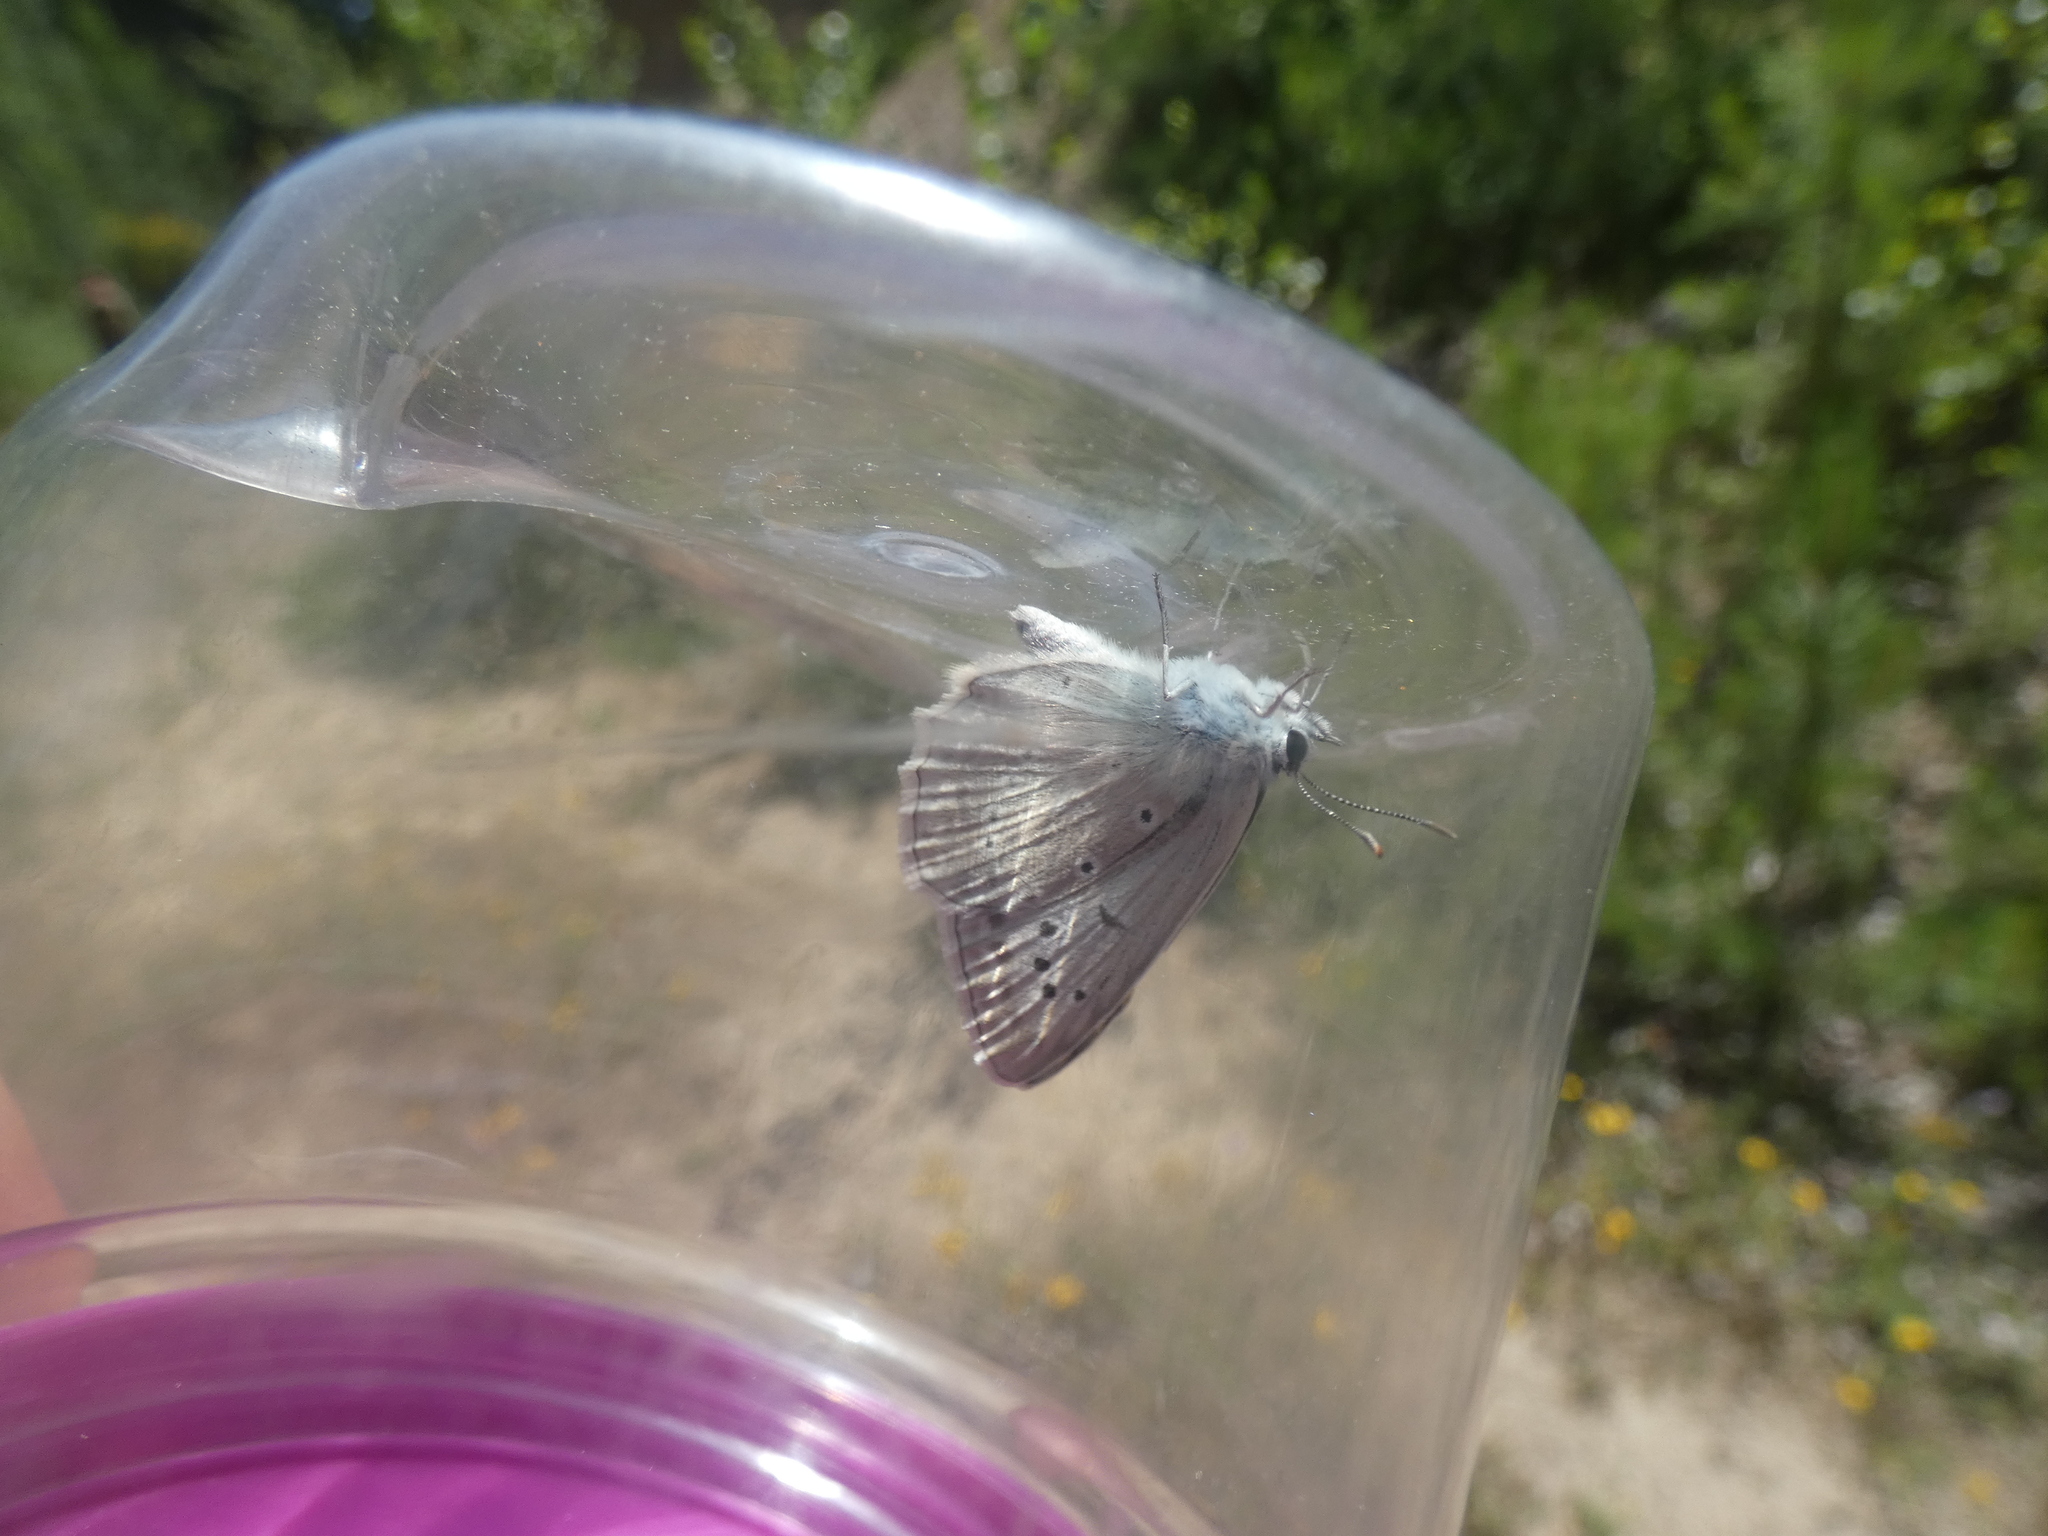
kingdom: Animalia
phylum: Arthropoda
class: Insecta
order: Lepidoptera
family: Lycaenidae
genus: Polyommatus
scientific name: Polyommatus daphnis
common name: Meleager's blue
